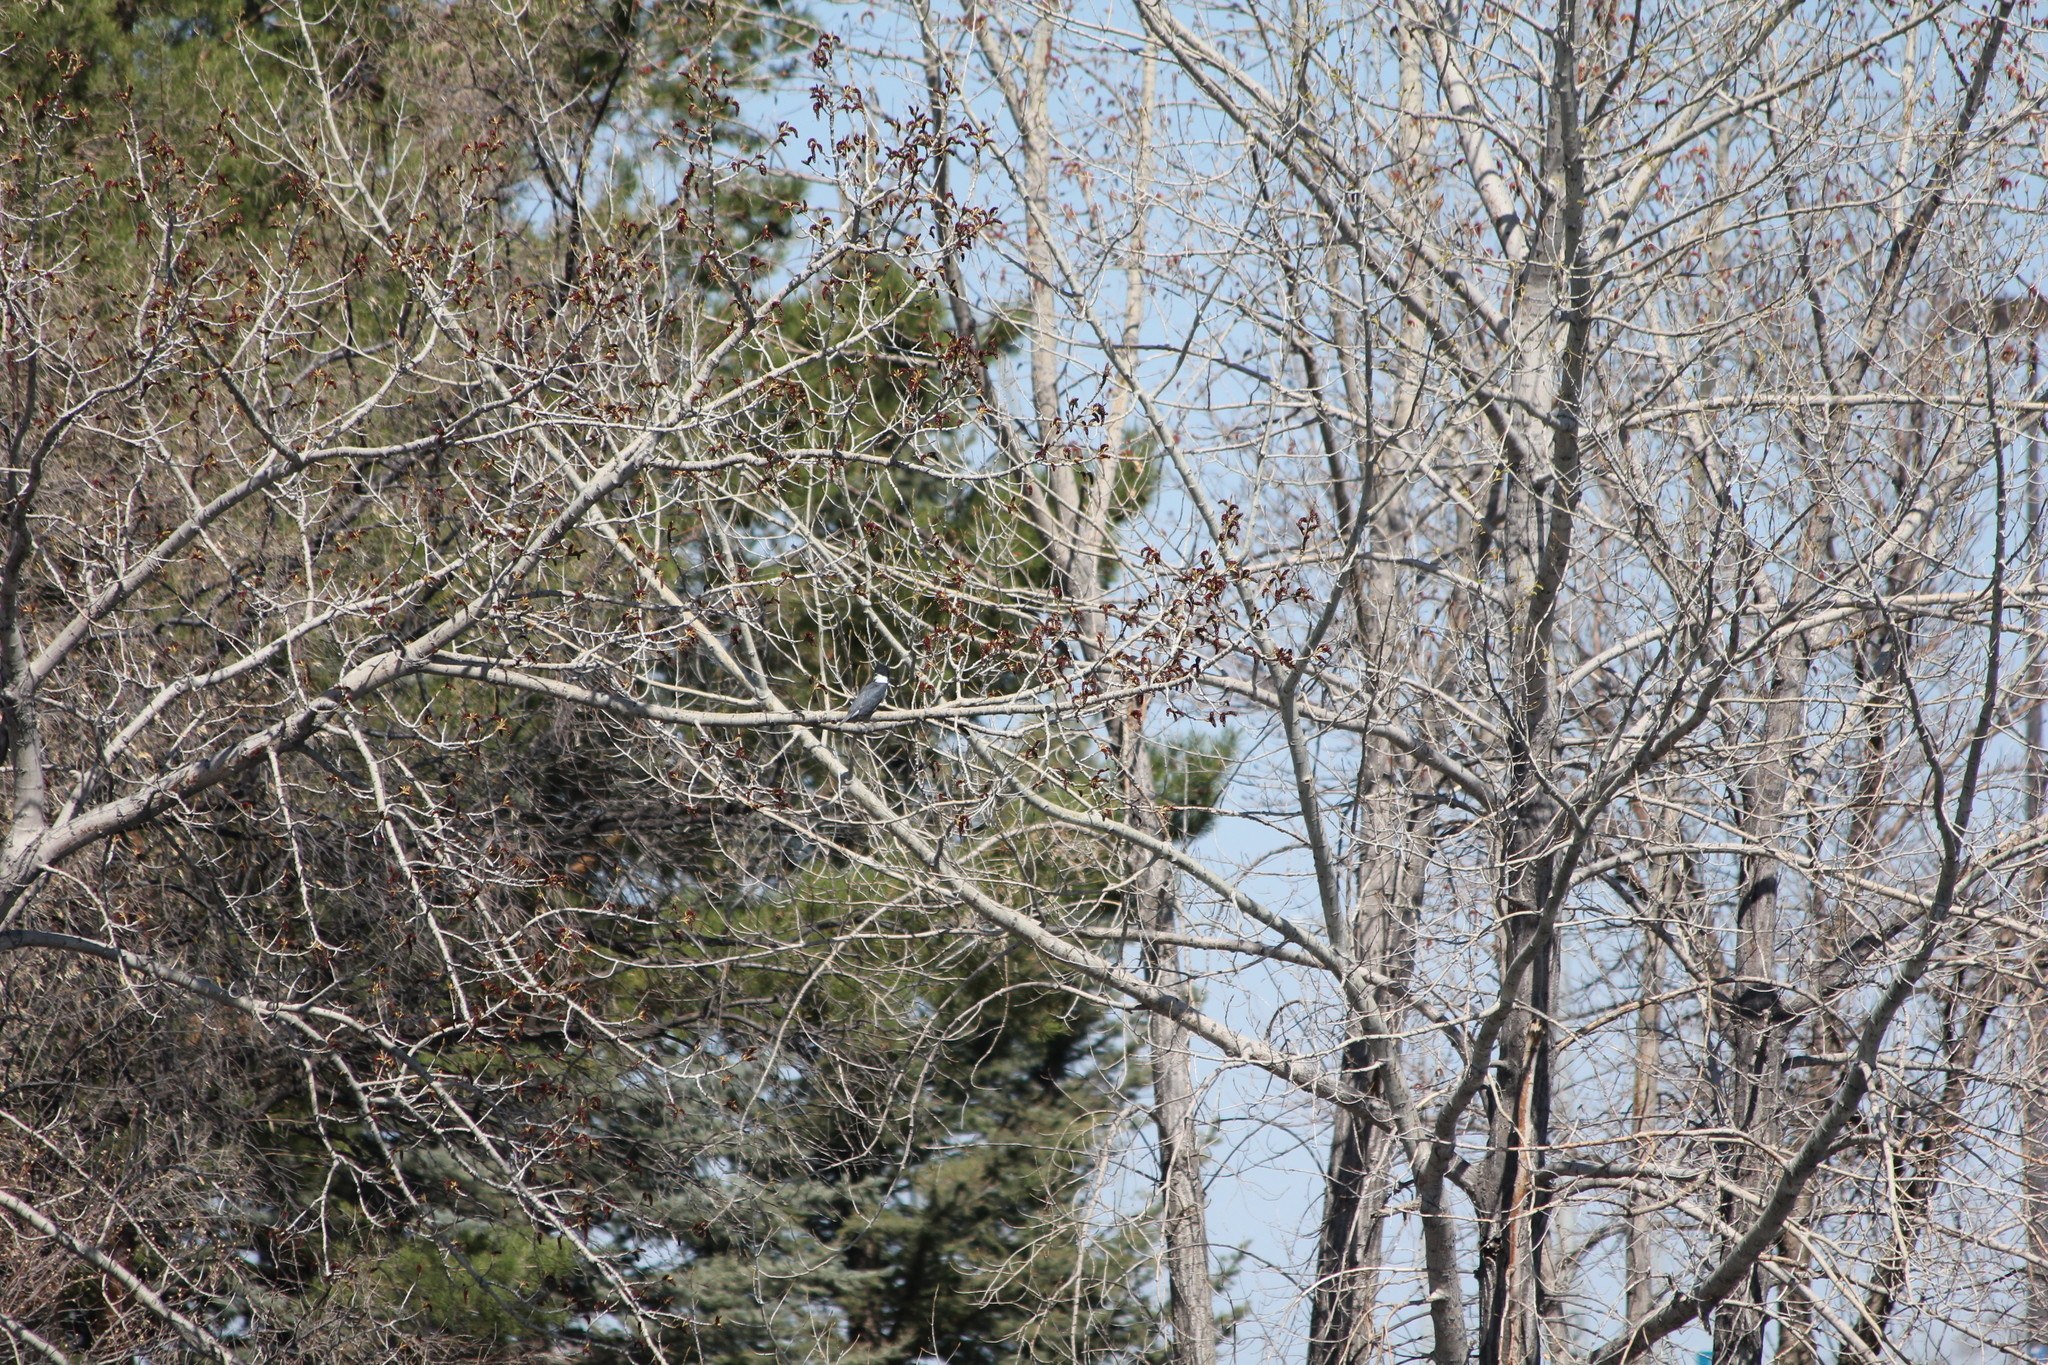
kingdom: Animalia
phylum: Chordata
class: Aves
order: Coraciiformes
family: Alcedinidae
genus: Megaceryle
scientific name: Megaceryle alcyon
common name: Belted kingfisher
